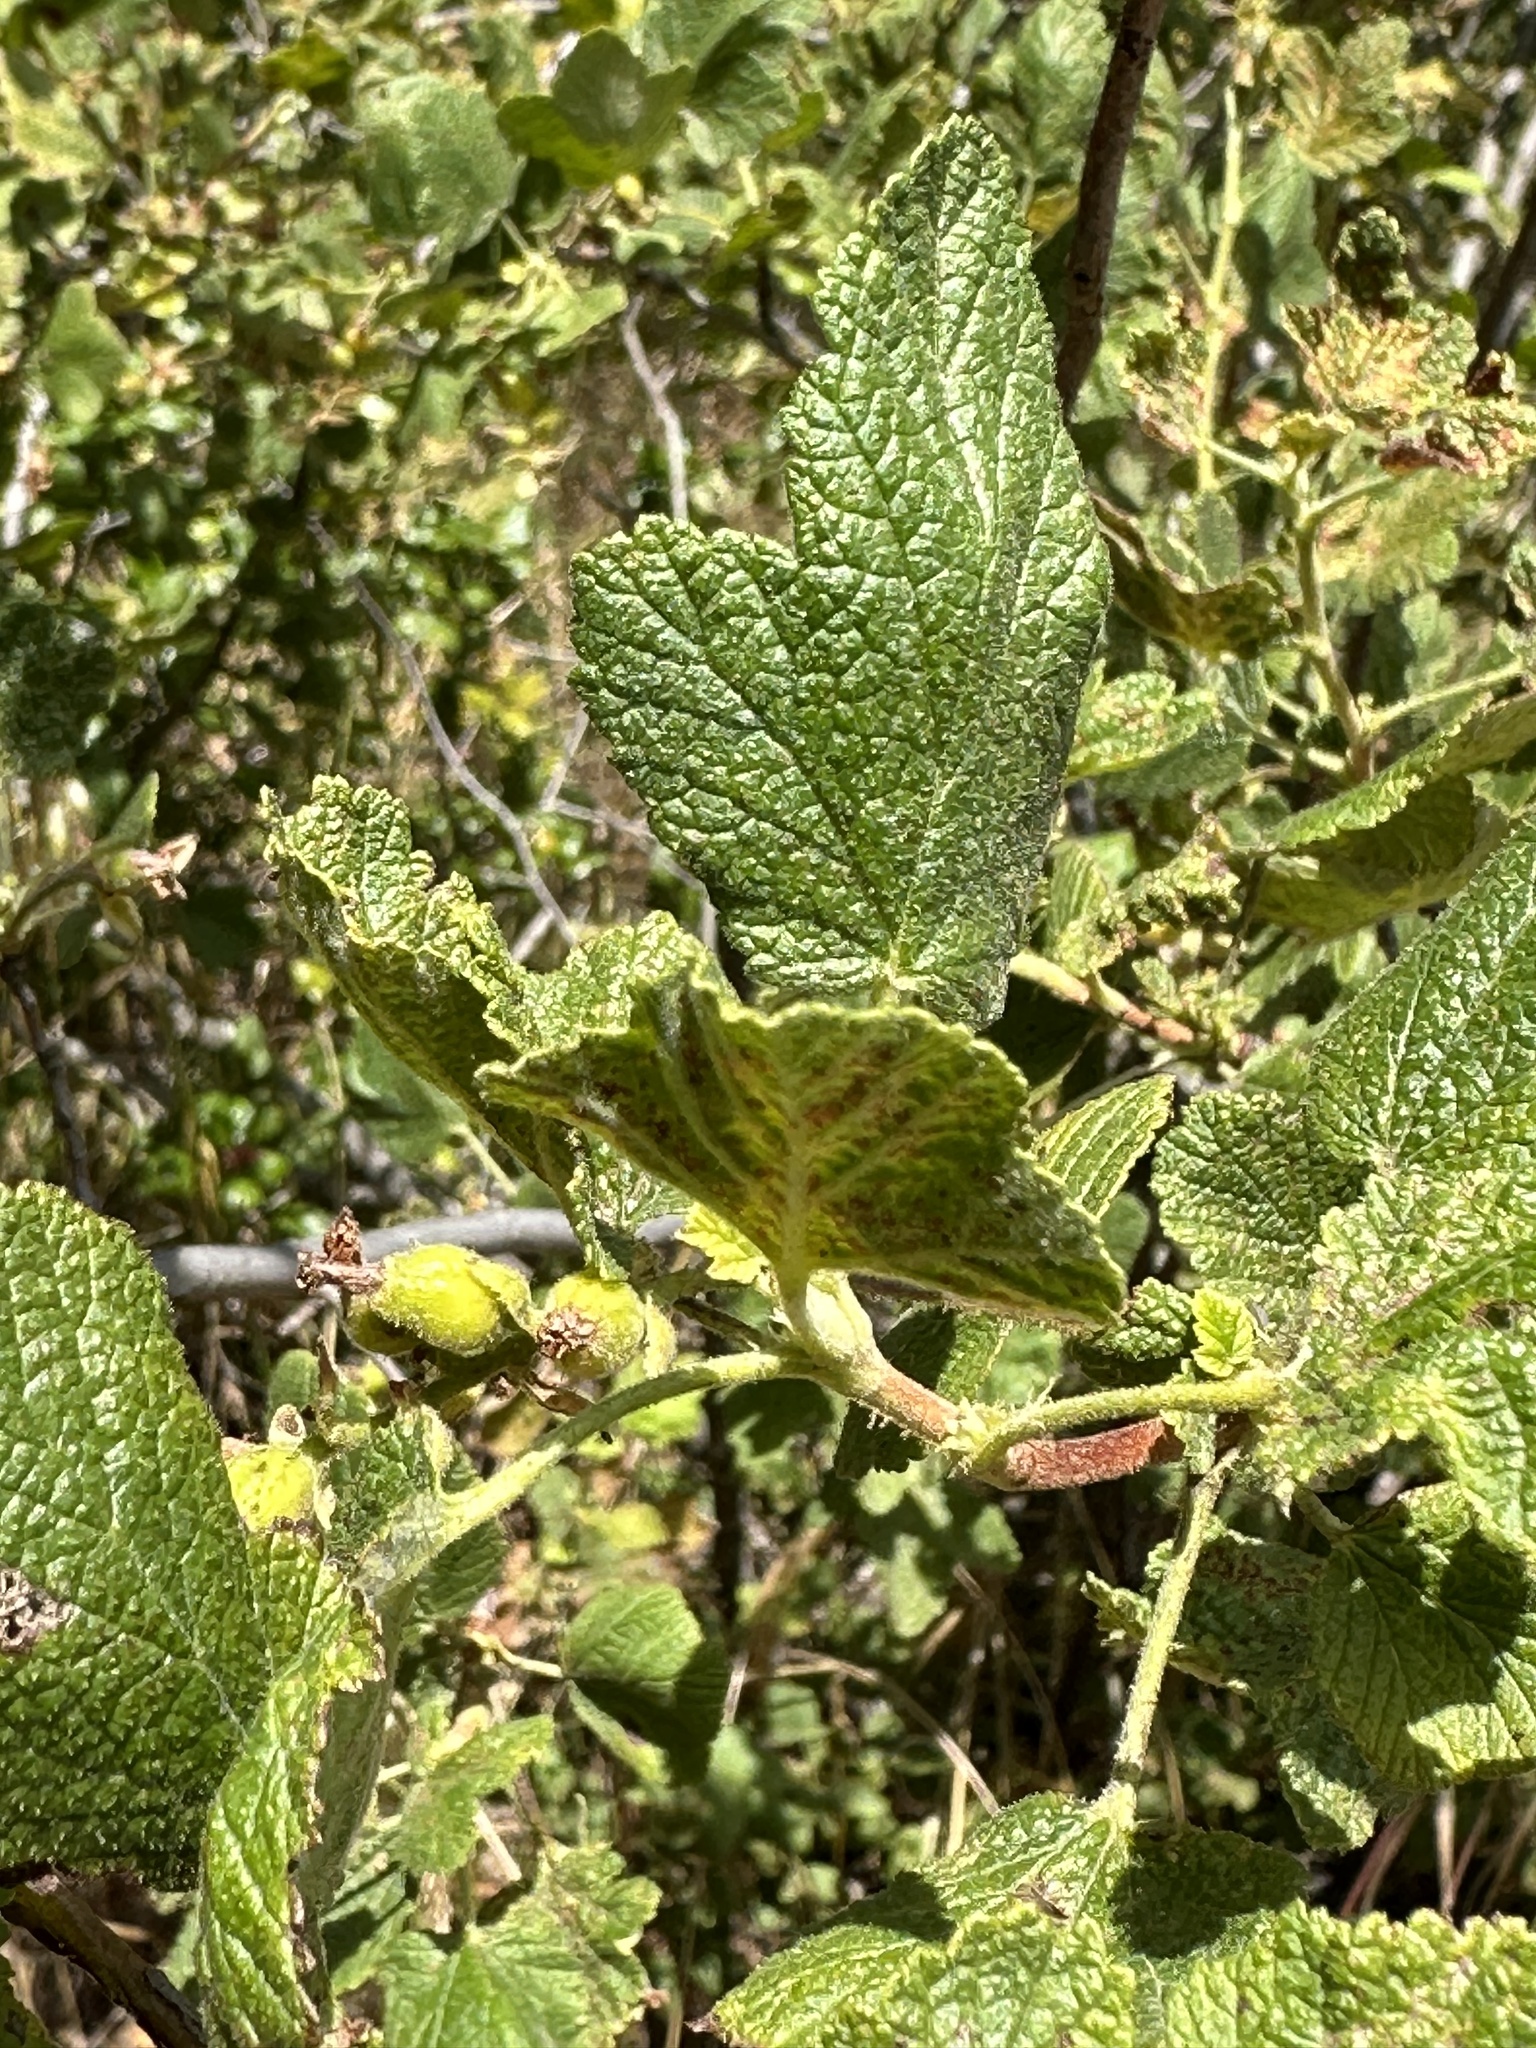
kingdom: Plantae
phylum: Tracheophyta
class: Magnoliopsida
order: Saxifragales
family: Grossulariaceae
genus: Ribes
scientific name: Ribes indecorum
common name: White-flower currant
